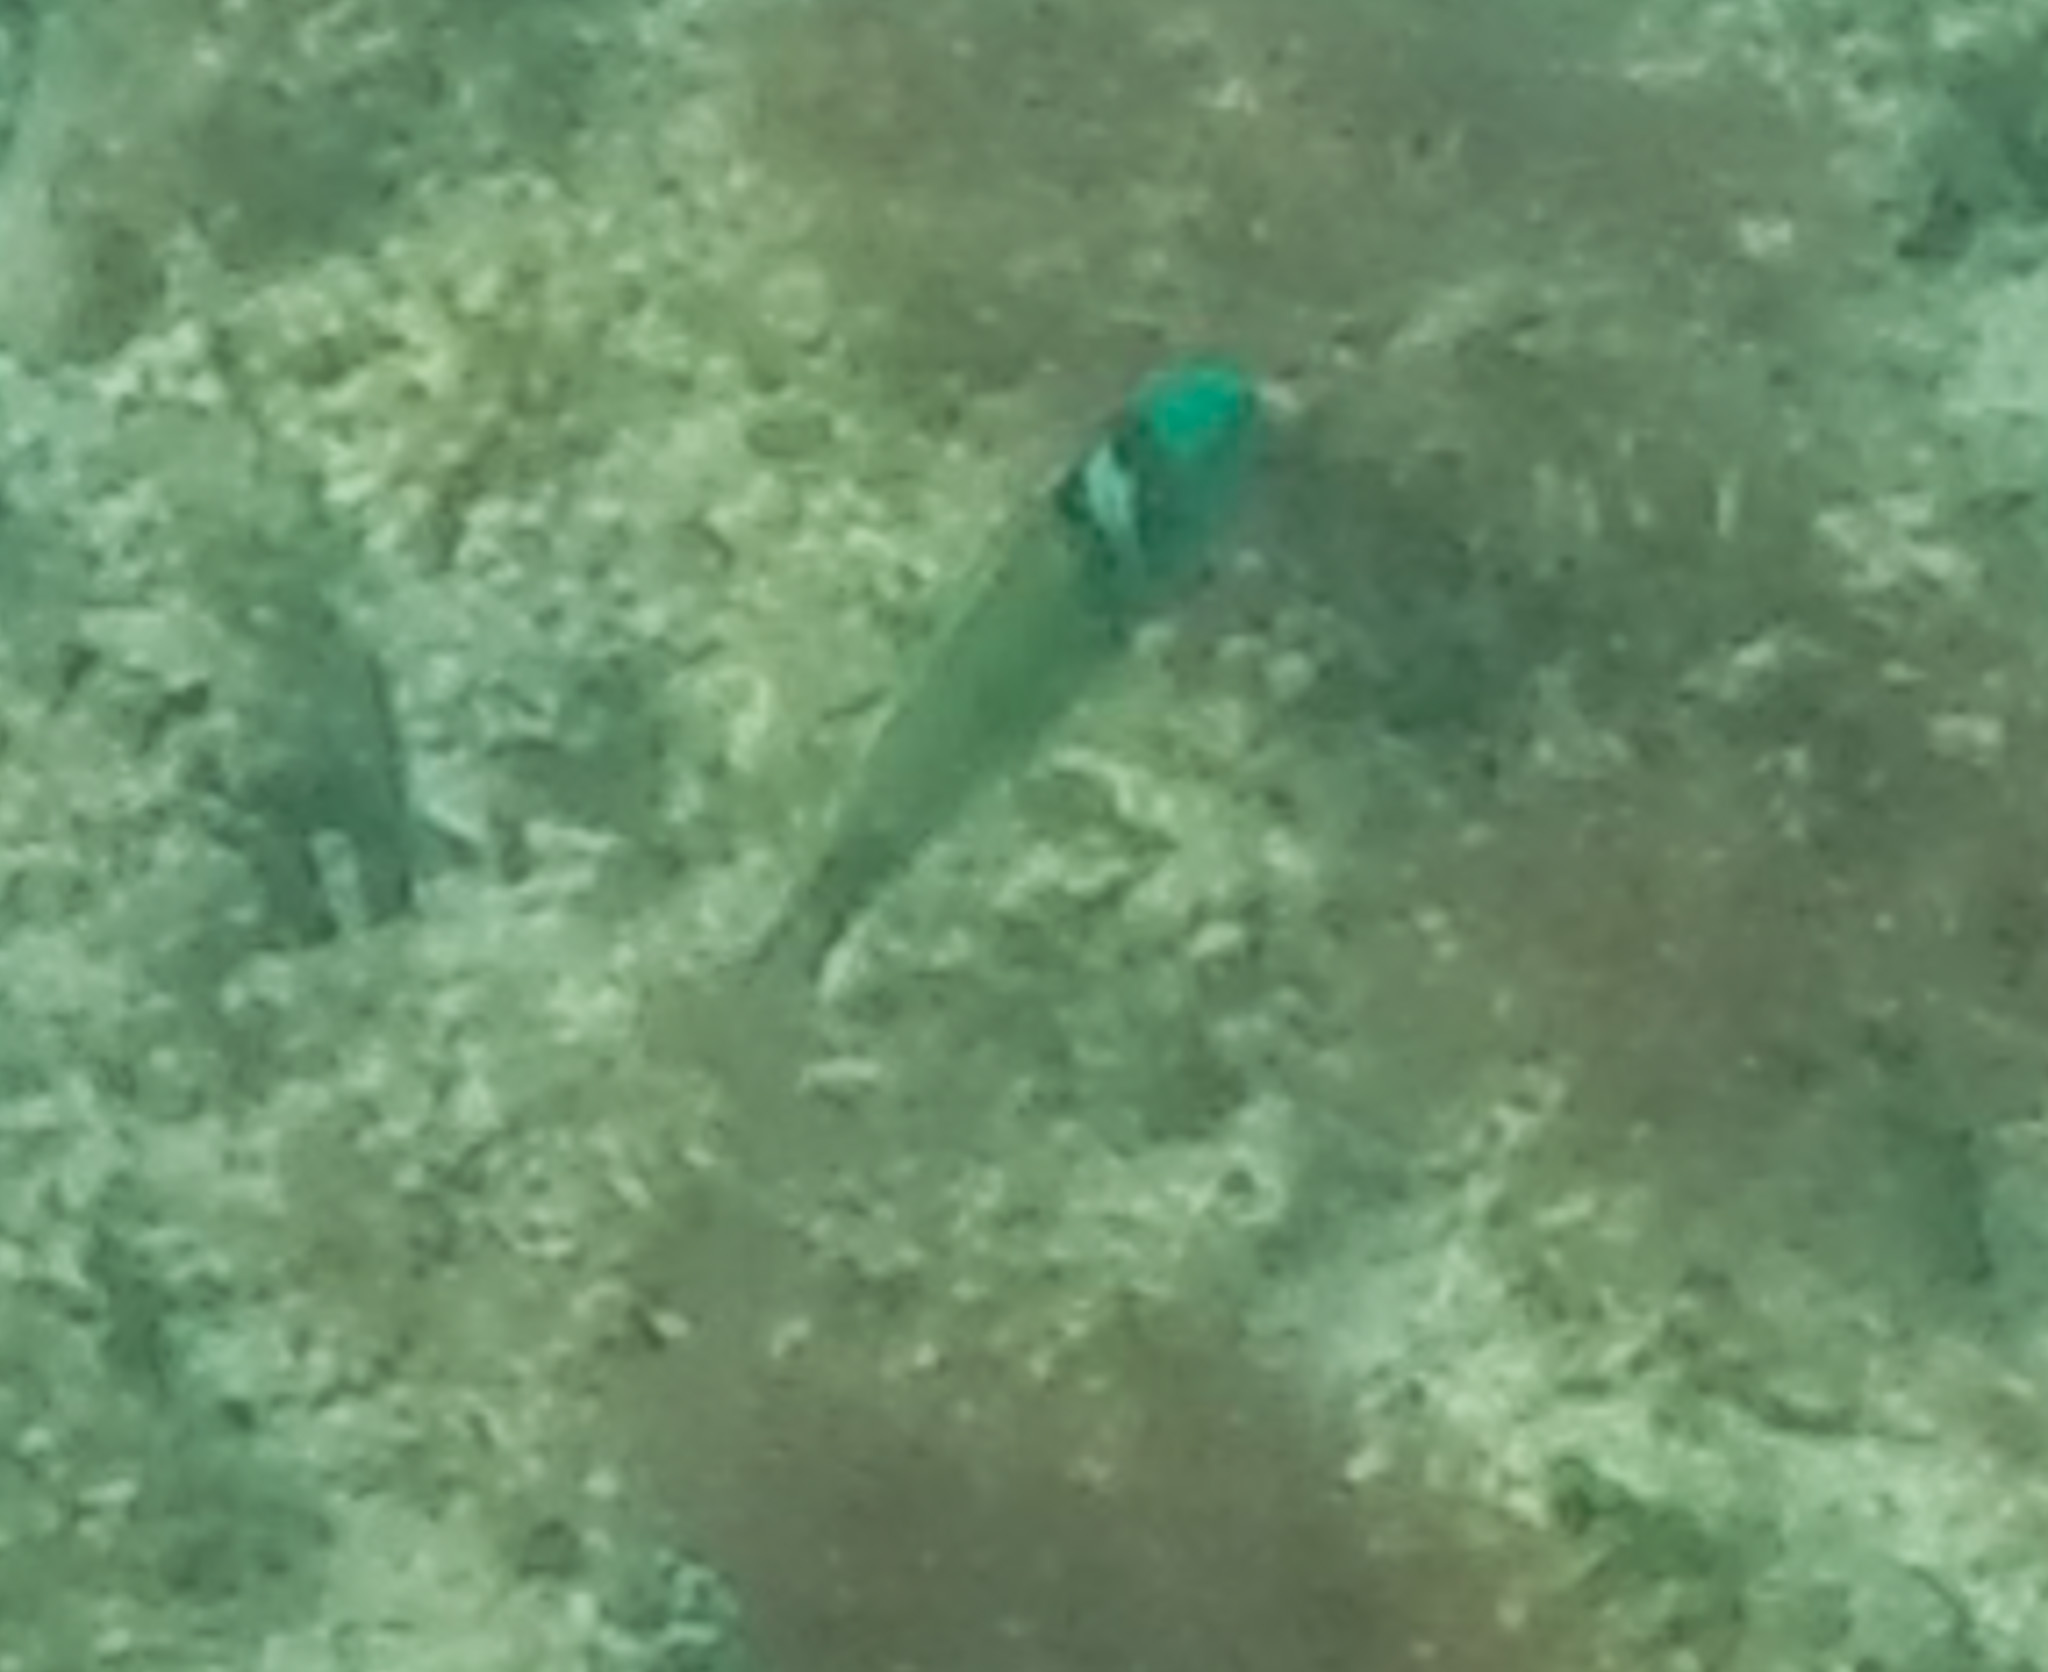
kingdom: Animalia
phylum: Chordata
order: Perciformes
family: Labridae
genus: Thalassoma
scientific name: Thalassoma bifasciatum
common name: Bluehead wrasse
